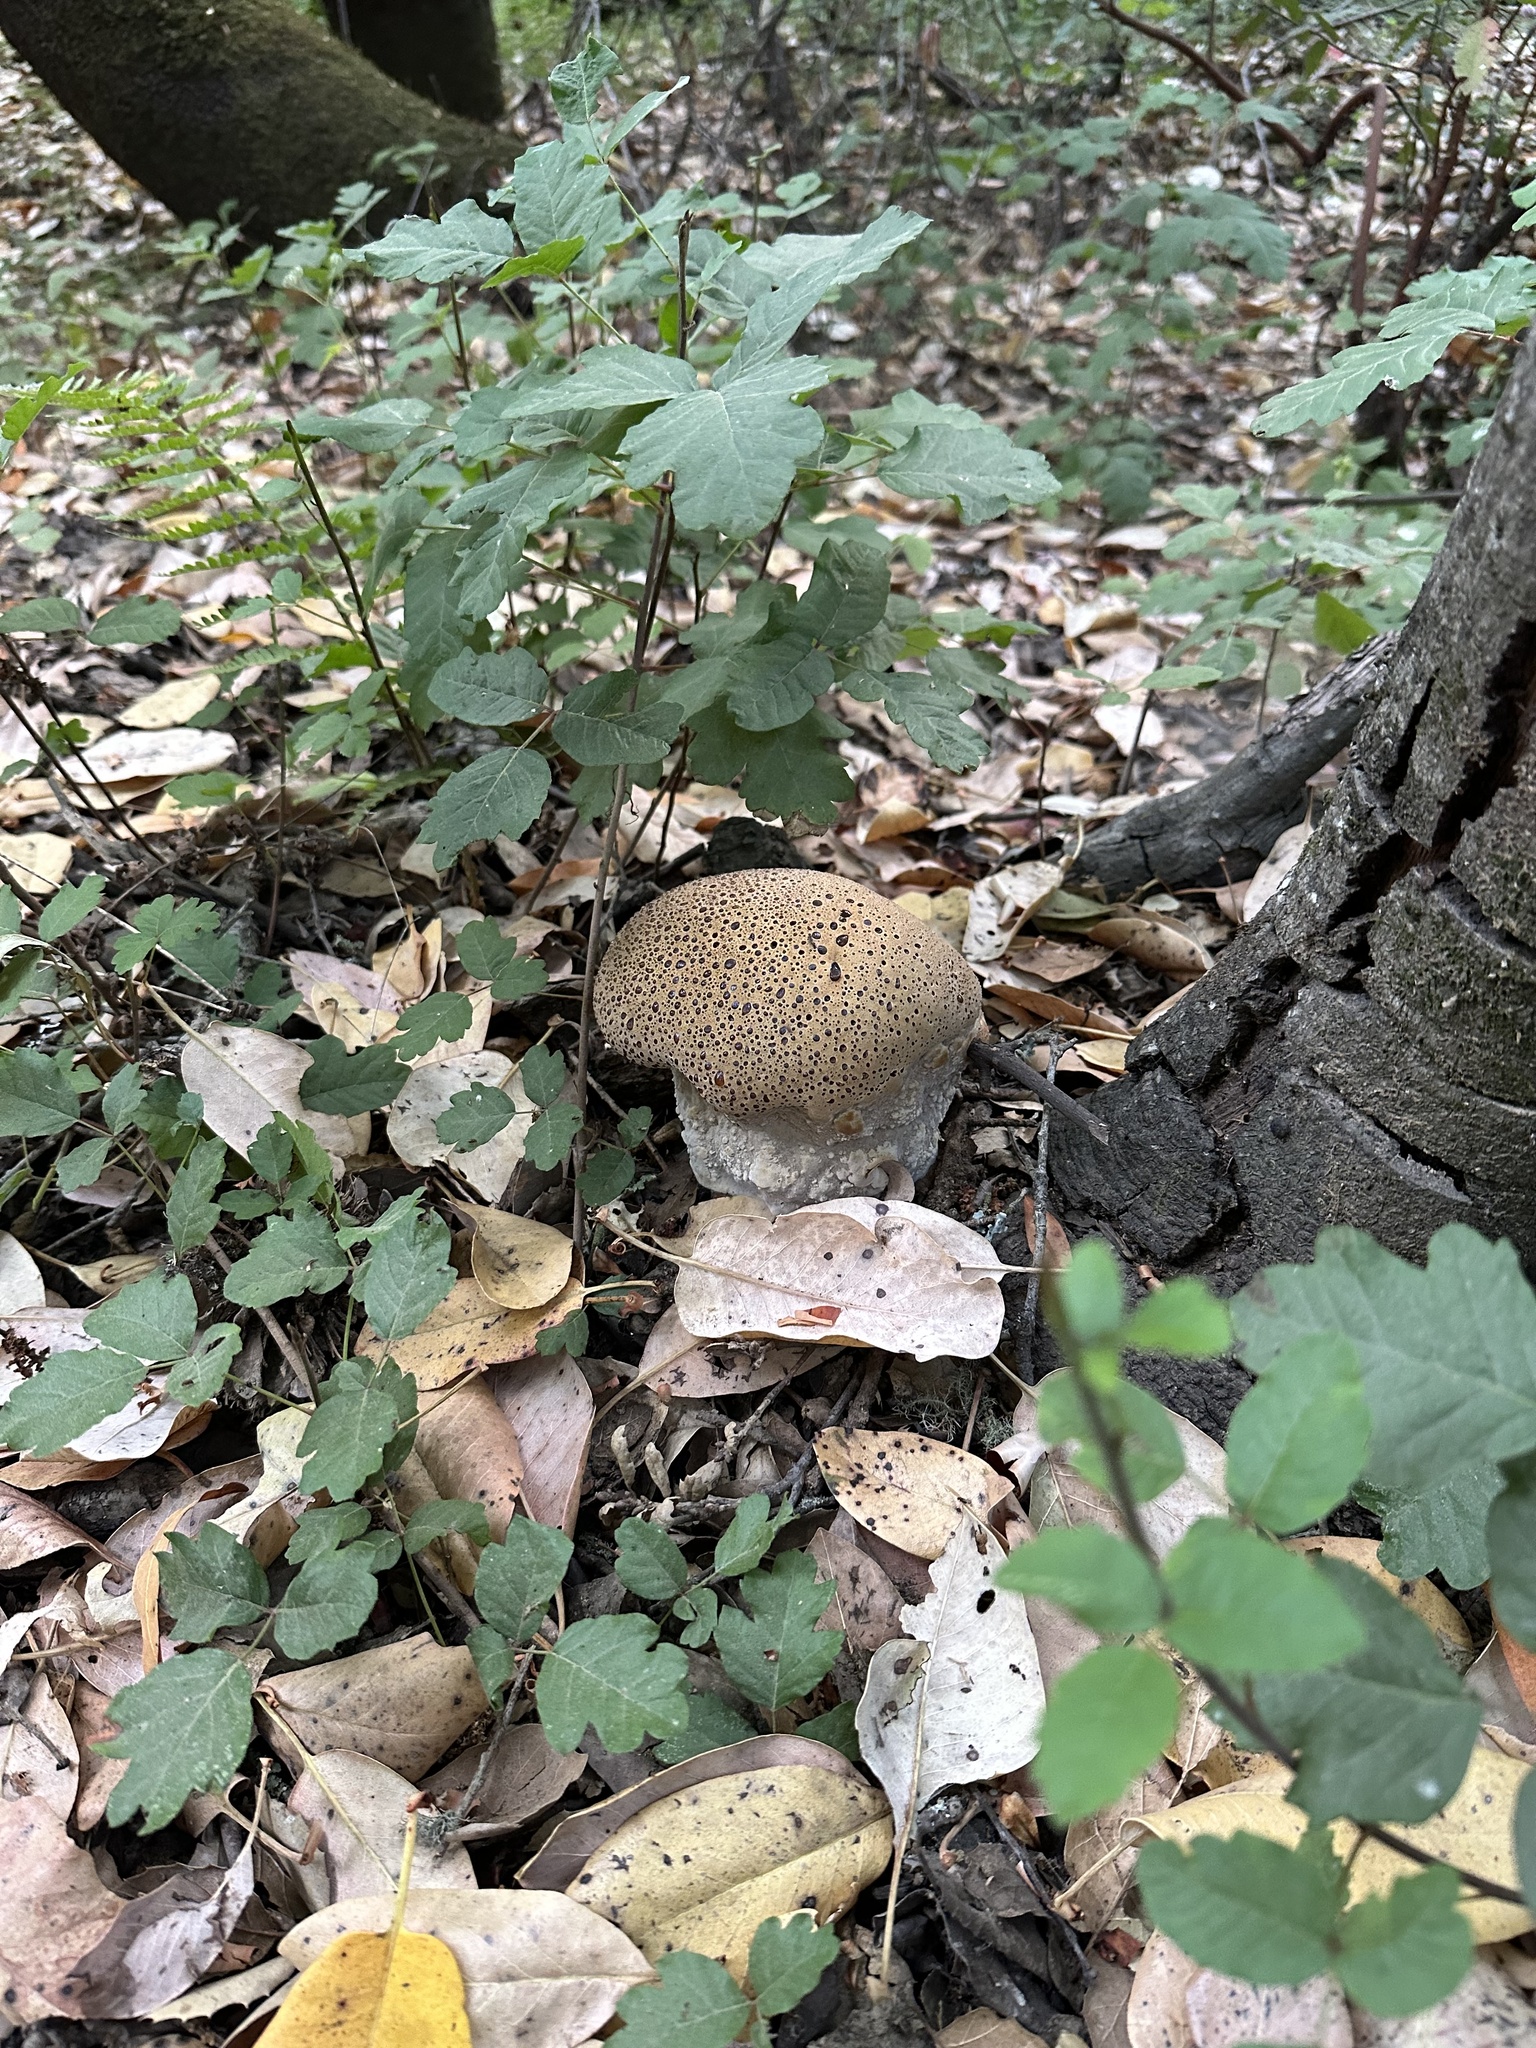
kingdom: Fungi
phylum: Basidiomycota
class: Agaricomycetes
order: Hymenochaetales
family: Hymenochaetaceae
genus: Pseudoinonotus
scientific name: Pseudoinonotus dryadeus
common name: Oak bracket
